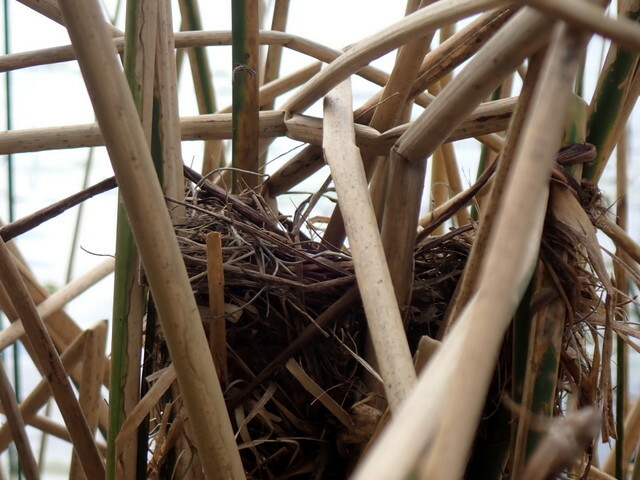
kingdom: Animalia
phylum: Chordata
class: Aves
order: Passeriformes
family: Icteridae
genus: Agelaius
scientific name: Agelaius phoeniceus
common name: Red-winged blackbird
